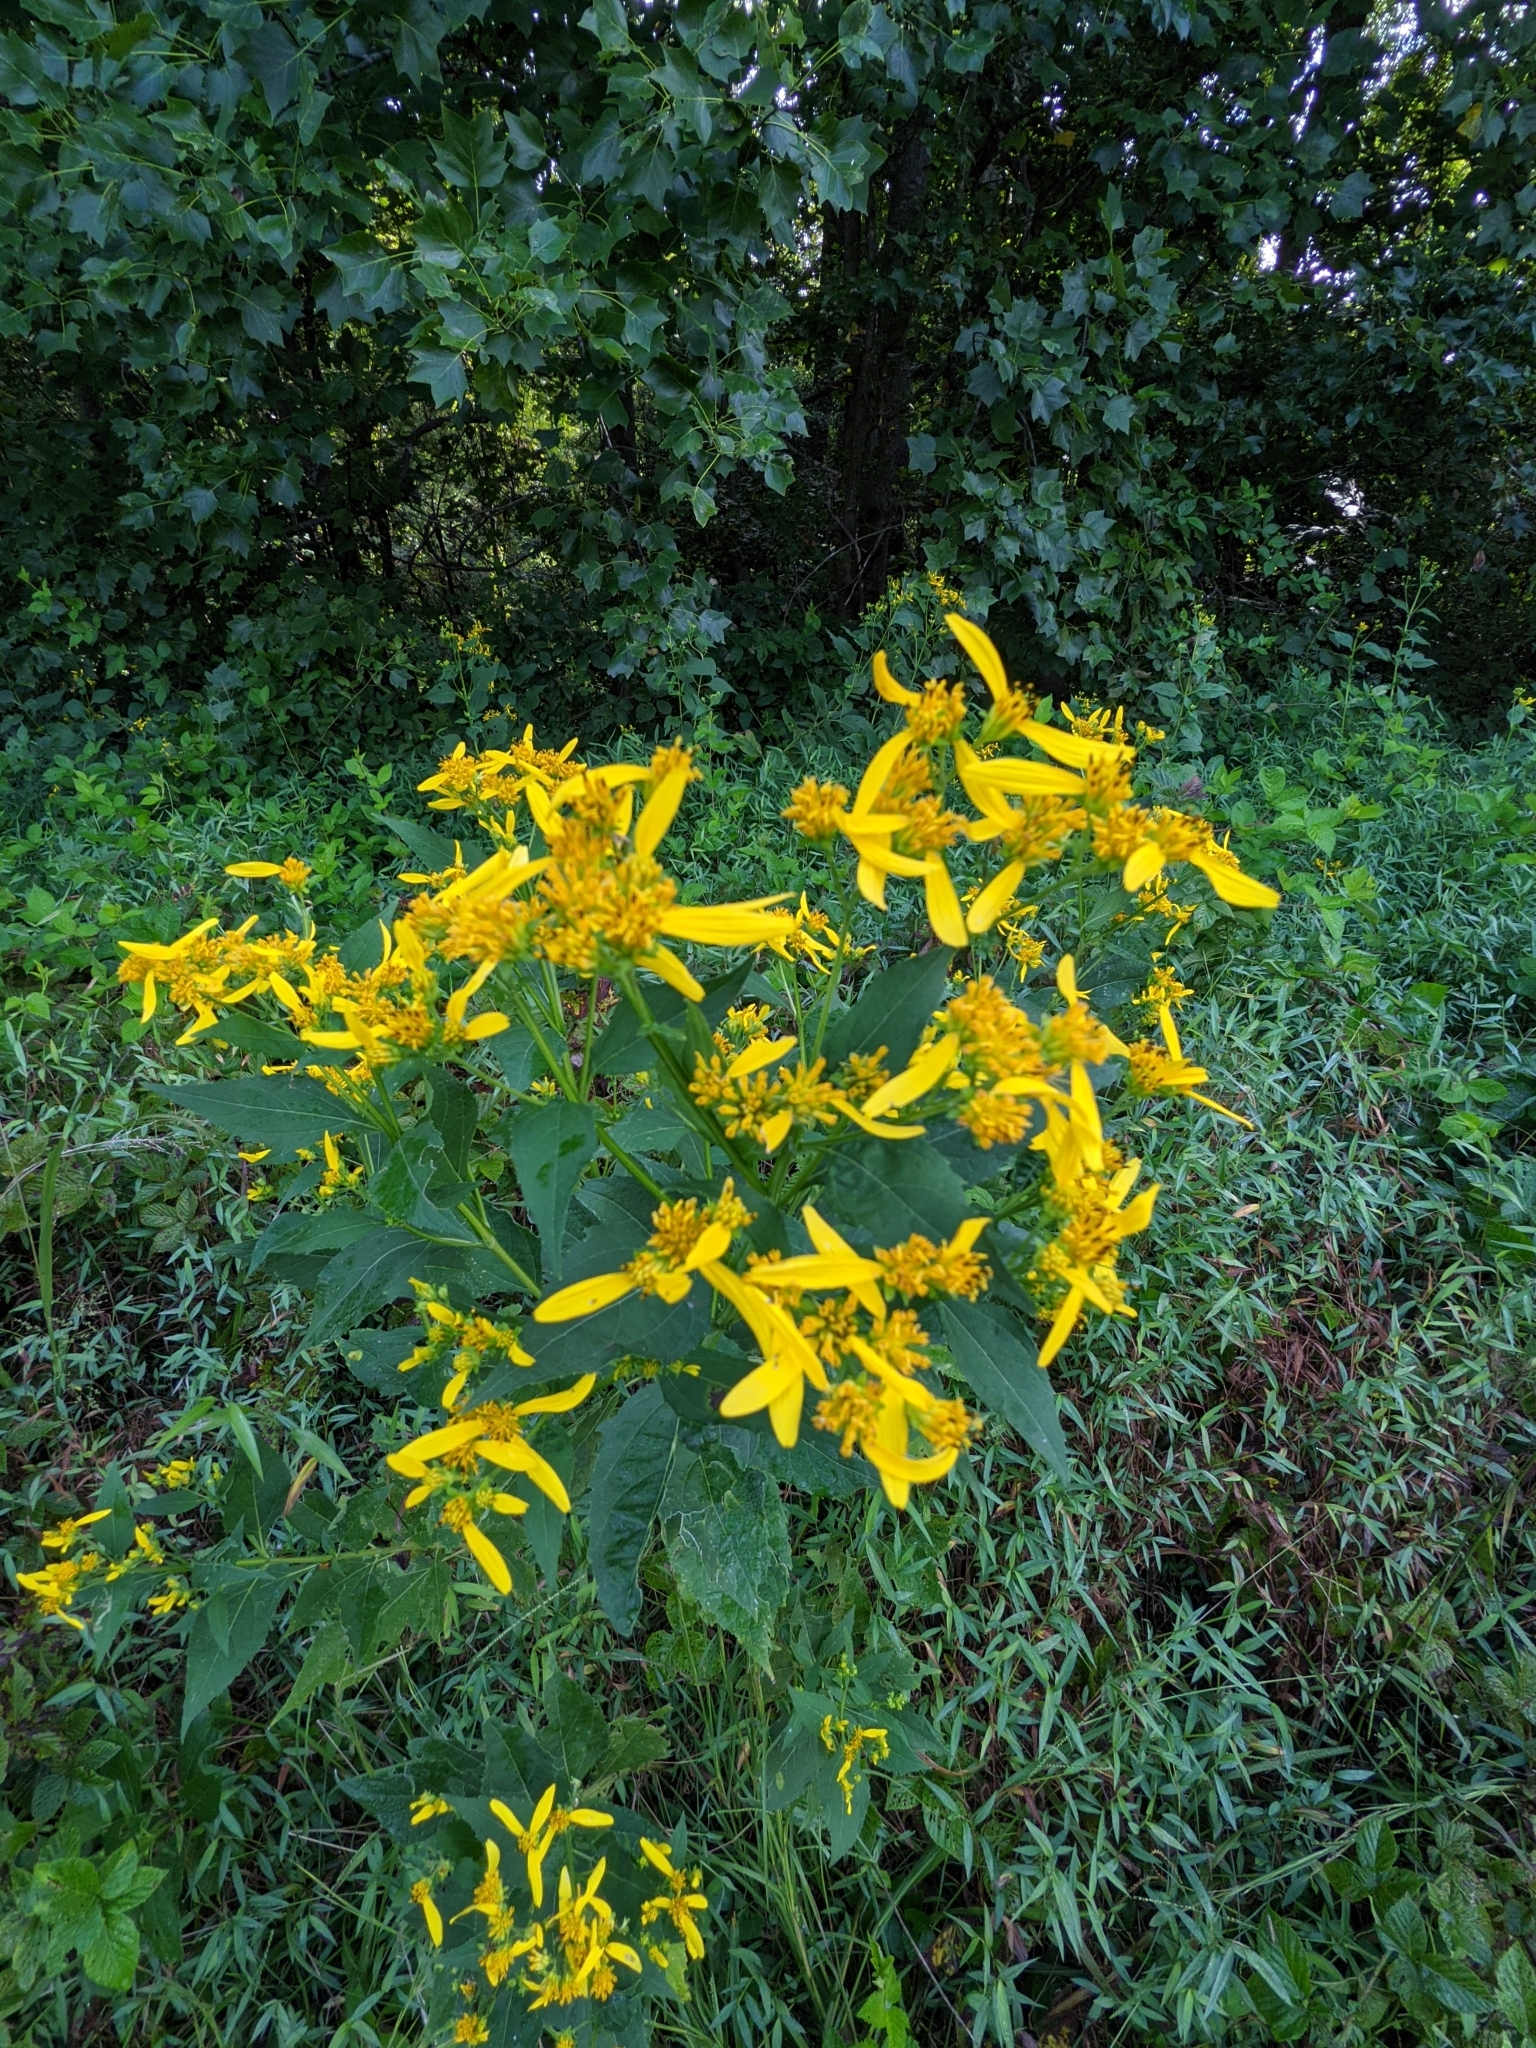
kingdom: Plantae
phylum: Tracheophyta
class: Magnoliopsida
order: Asterales
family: Asteraceae
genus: Verbesina
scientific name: Verbesina occidentalis
